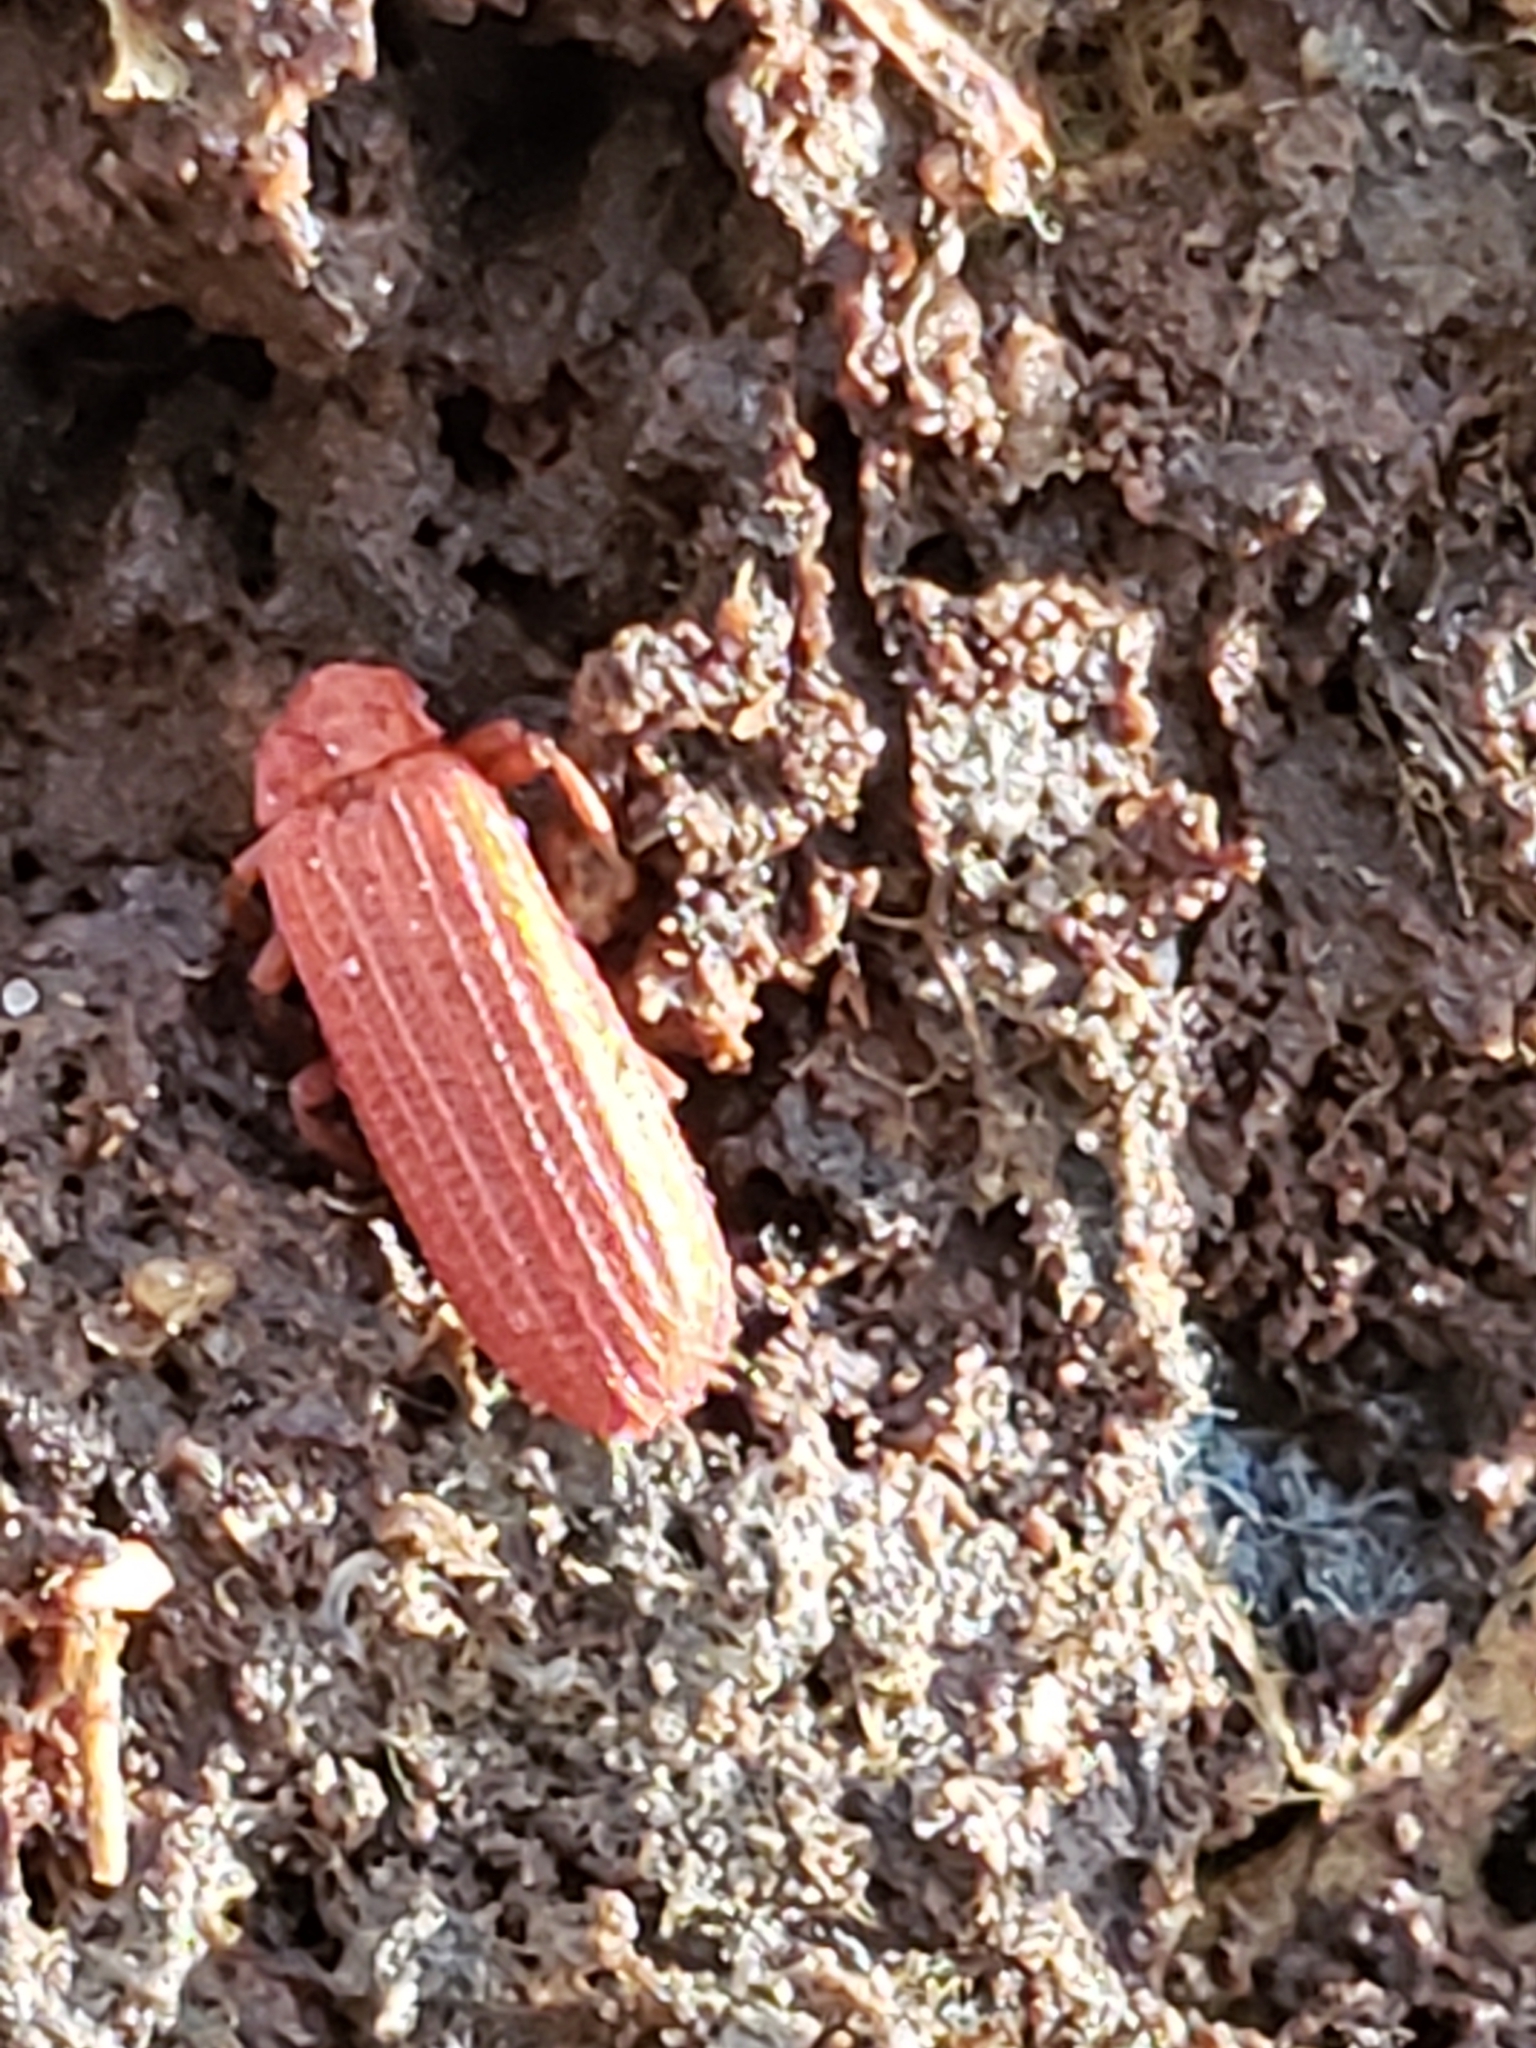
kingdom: Animalia
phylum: Arthropoda
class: Insecta
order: Coleoptera
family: Lycidae
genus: Punicealis
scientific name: Punicealis
